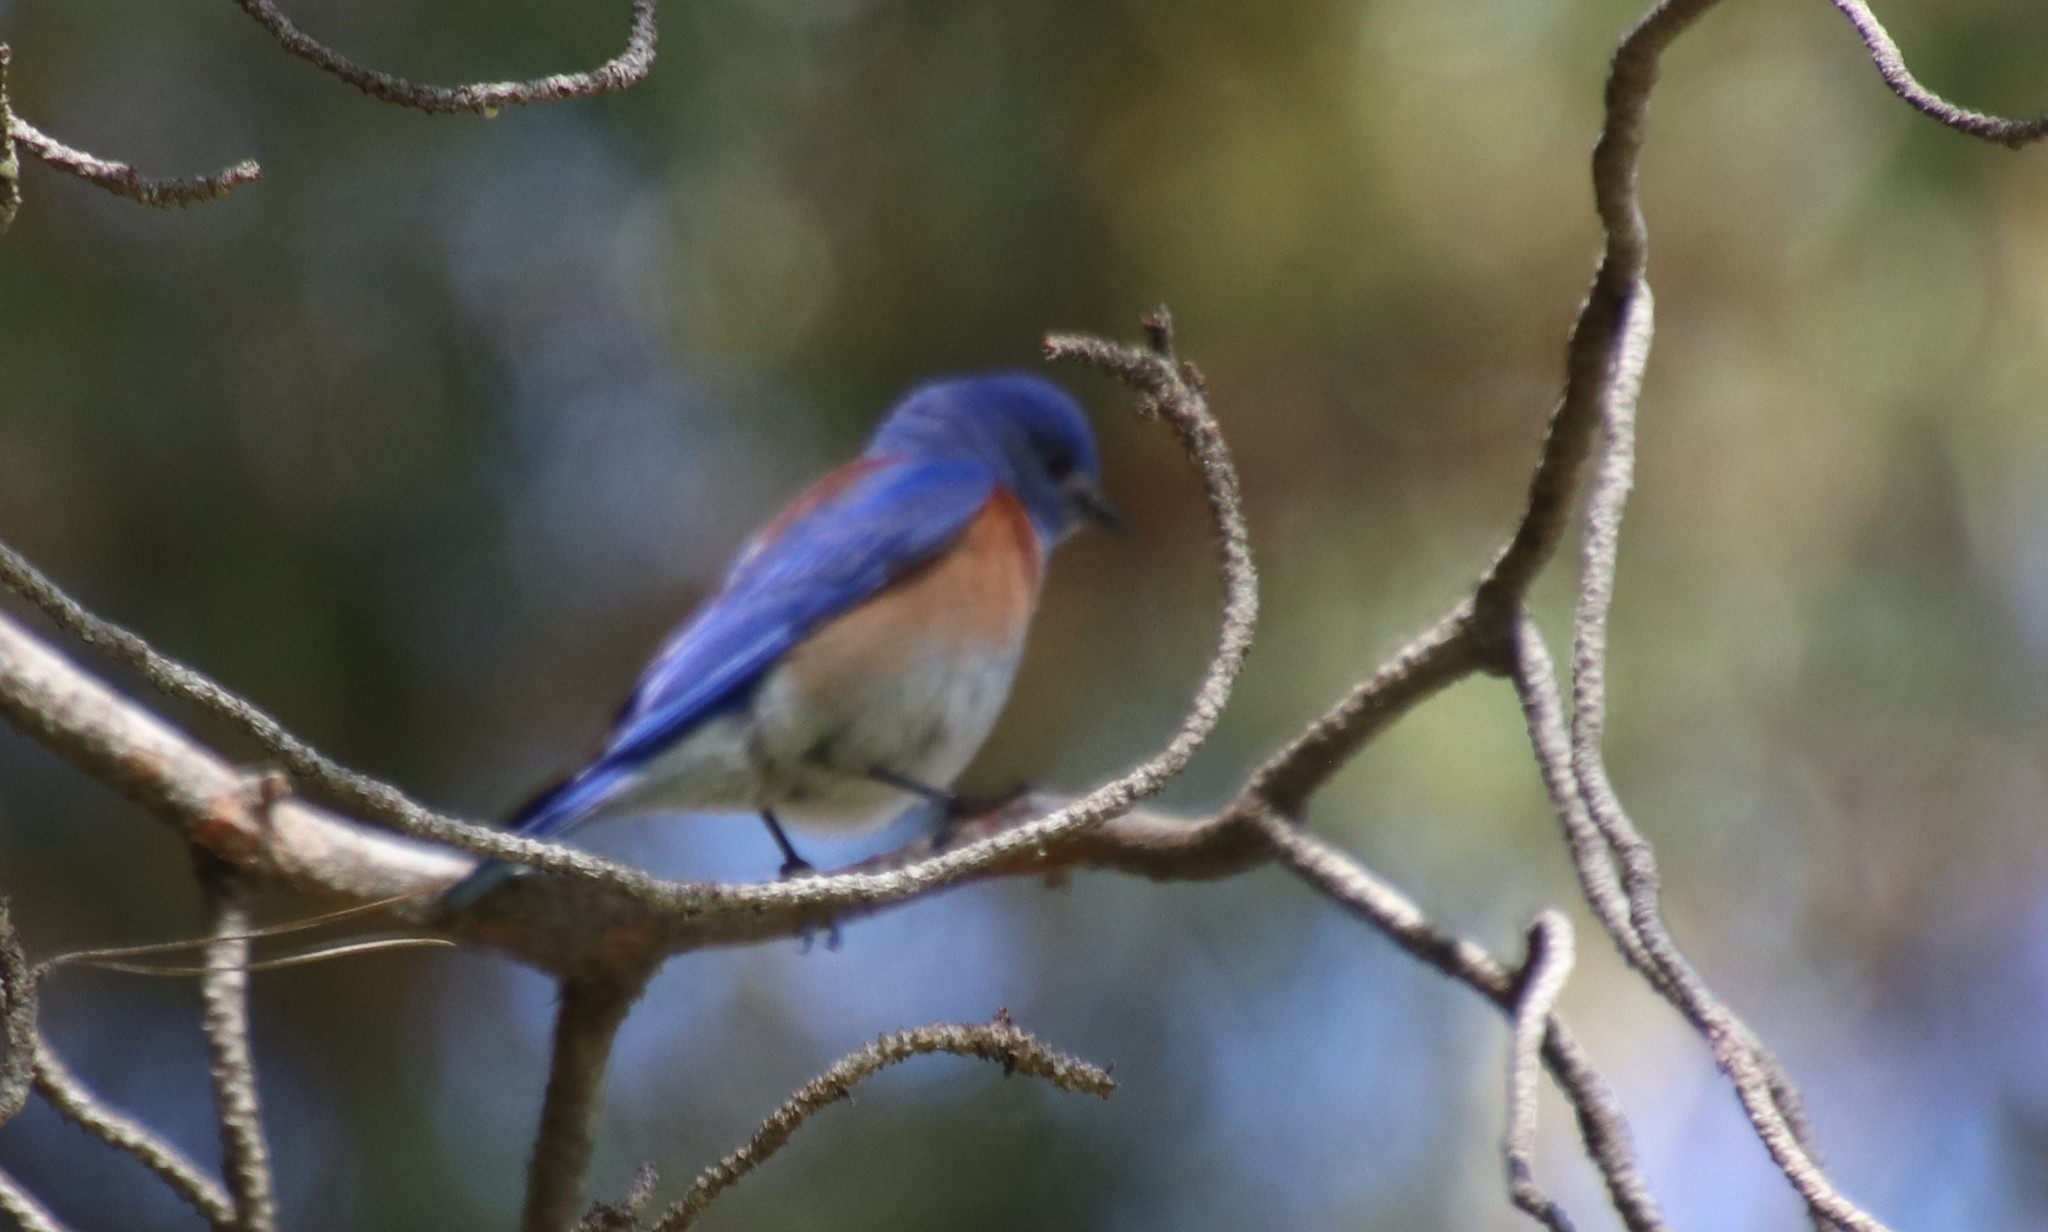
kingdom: Animalia
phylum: Chordata
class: Aves
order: Passeriformes
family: Turdidae
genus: Sialia
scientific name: Sialia mexicana
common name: Western bluebird
